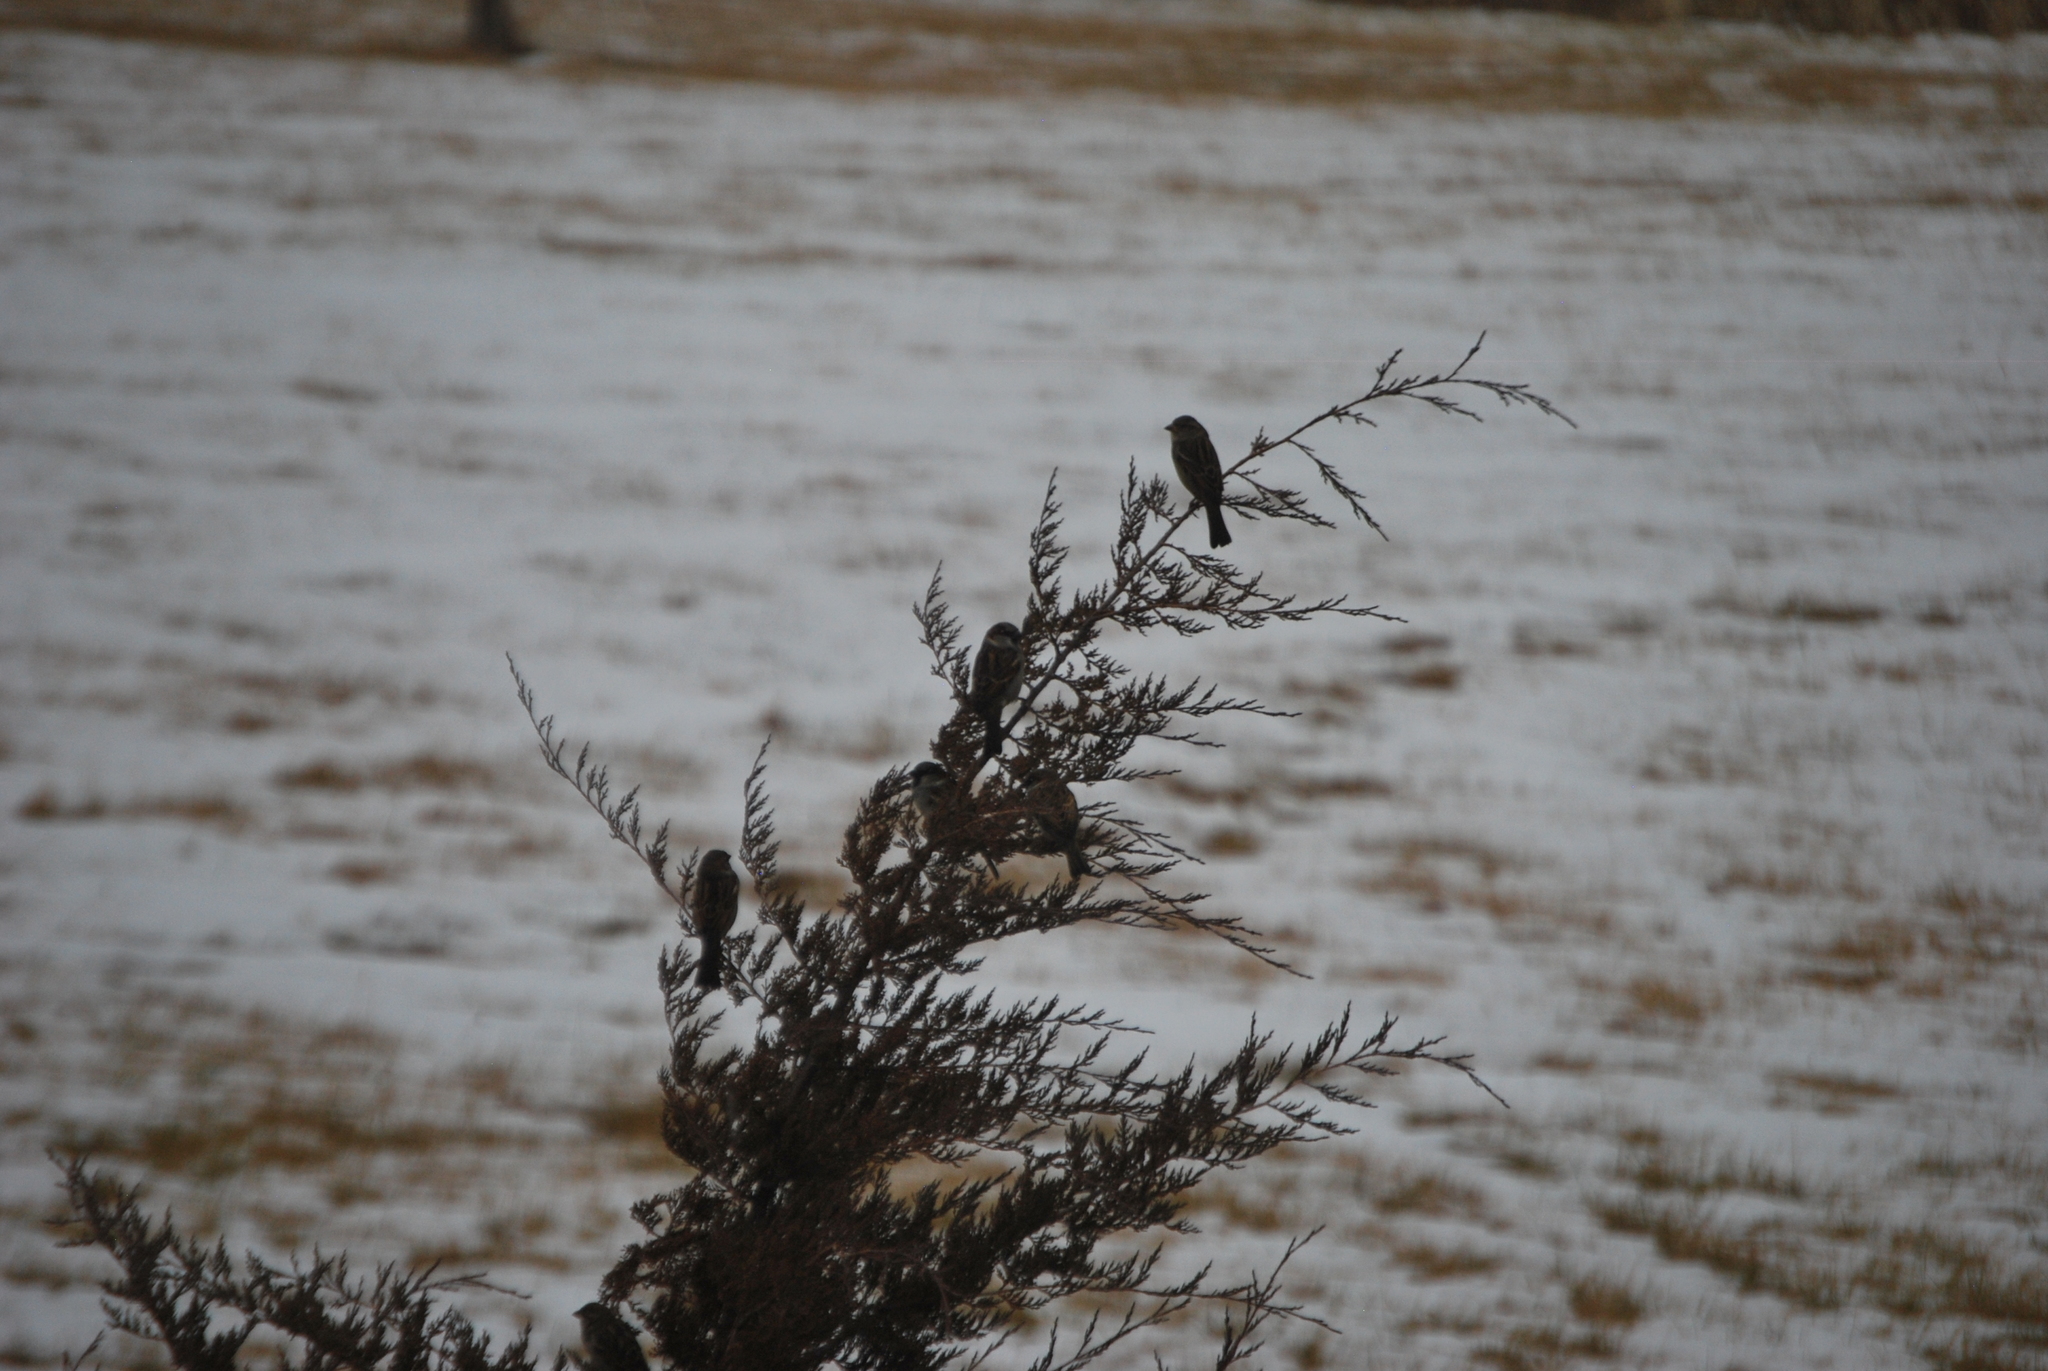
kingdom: Animalia
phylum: Chordata
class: Aves
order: Passeriformes
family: Passeridae
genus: Passer
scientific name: Passer domesticus
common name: House sparrow
